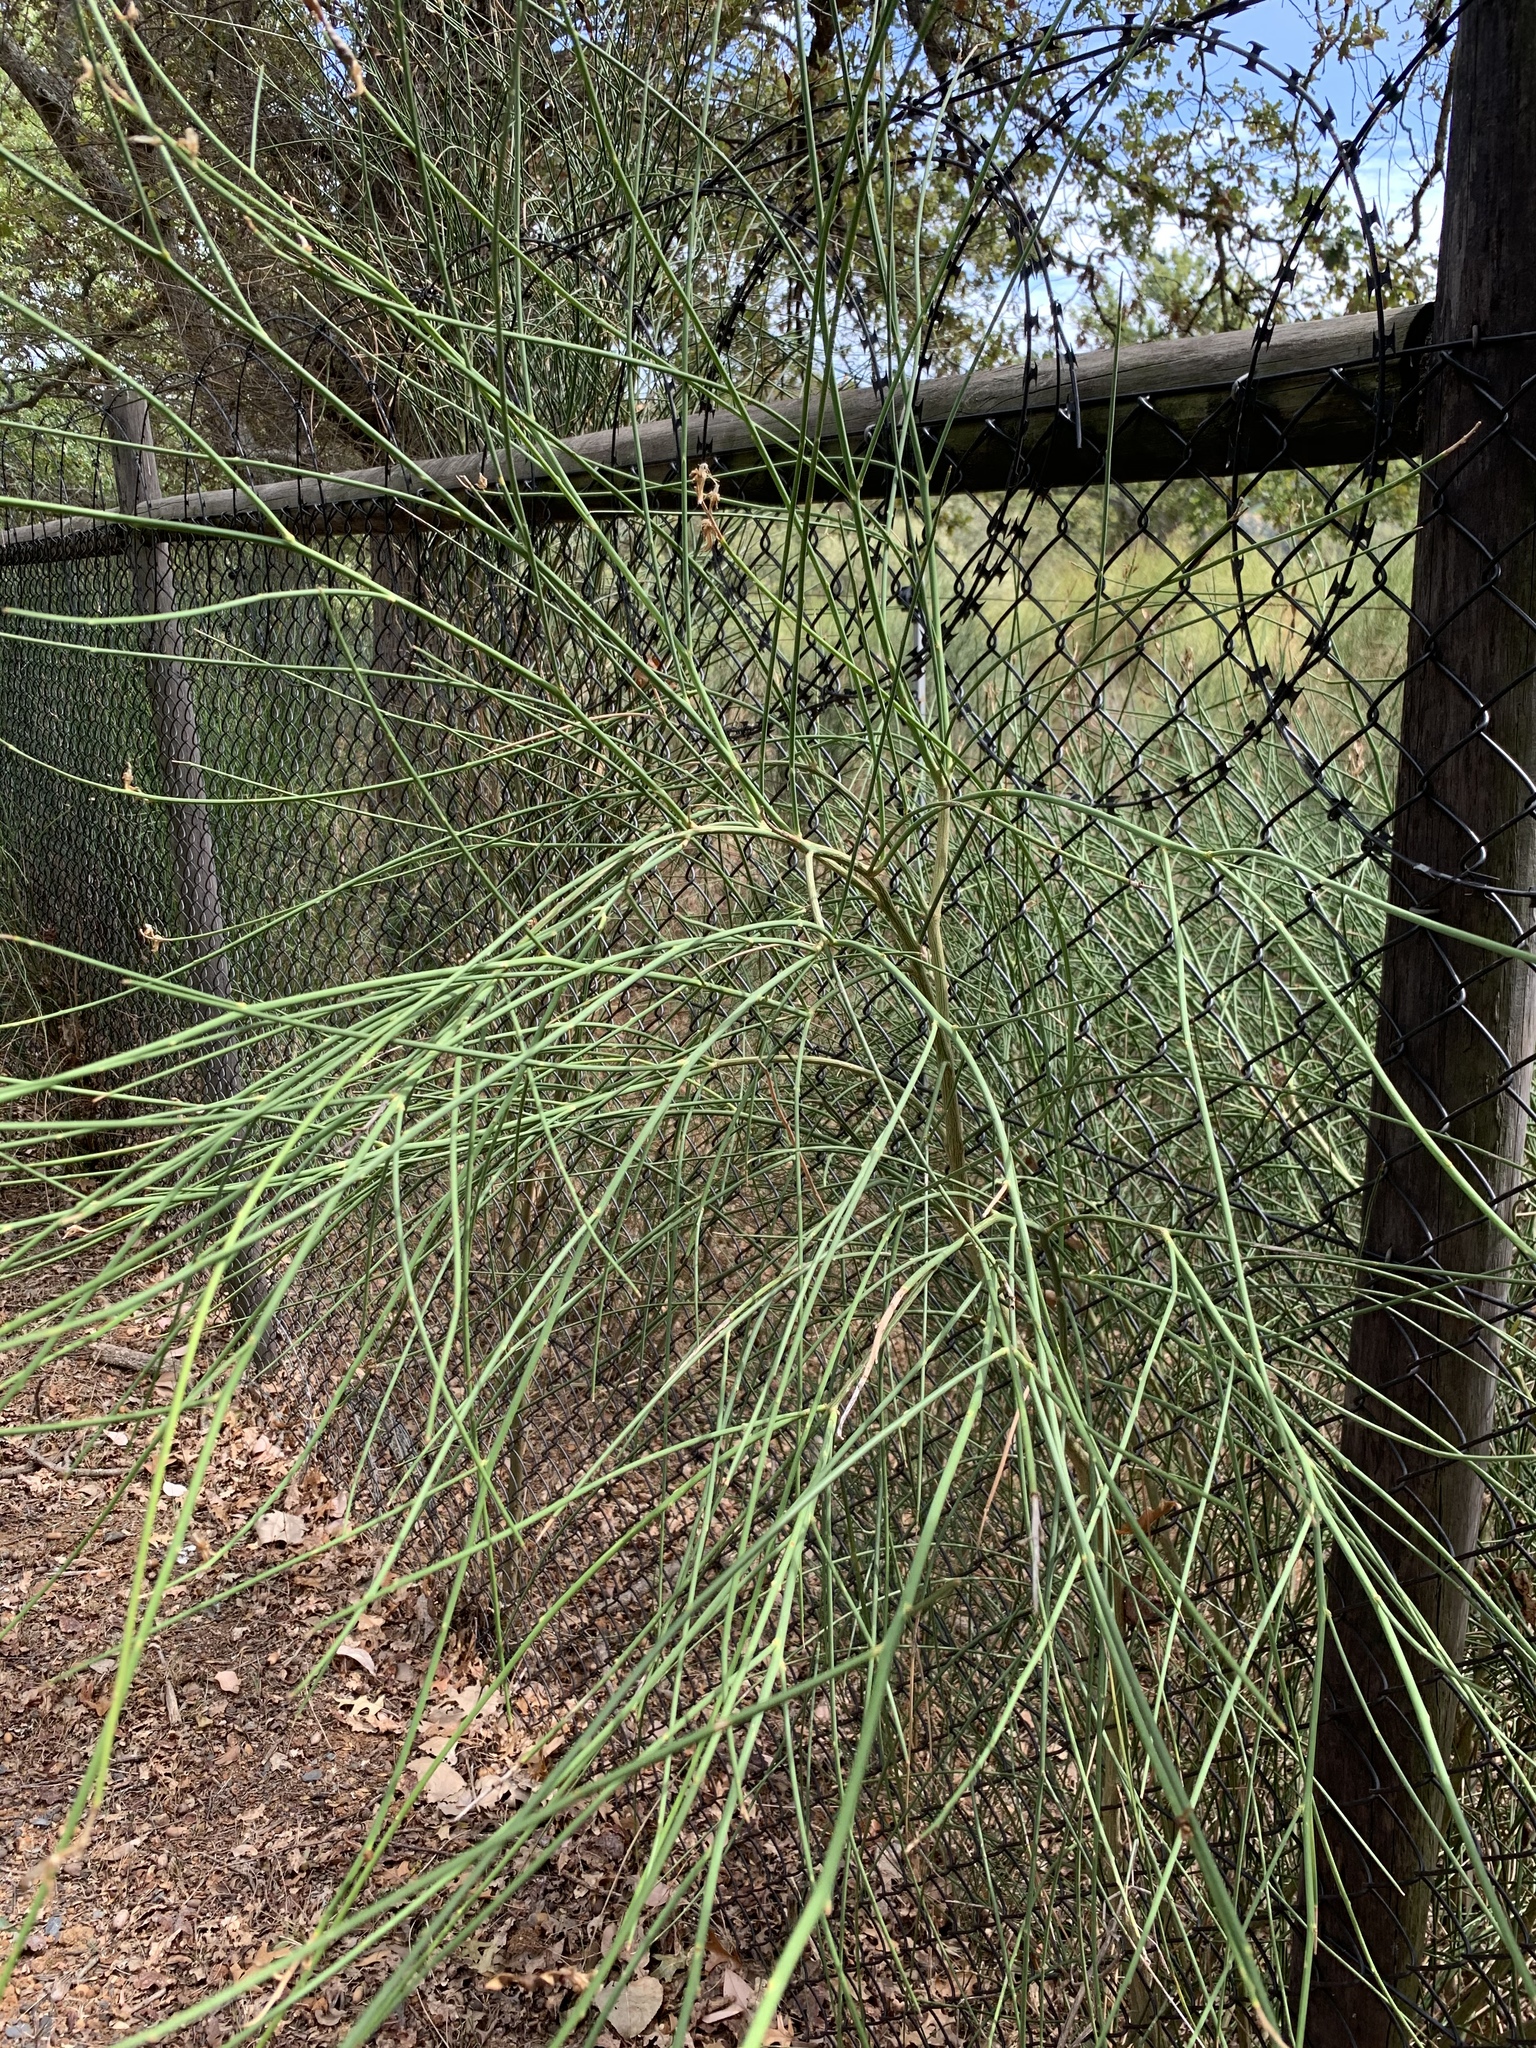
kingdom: Plantae
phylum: Tracheophyta
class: Magnoliopsida
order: Fabales
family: Fabaceae
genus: Spartium
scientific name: Spartium junceum
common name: Spanish broom
